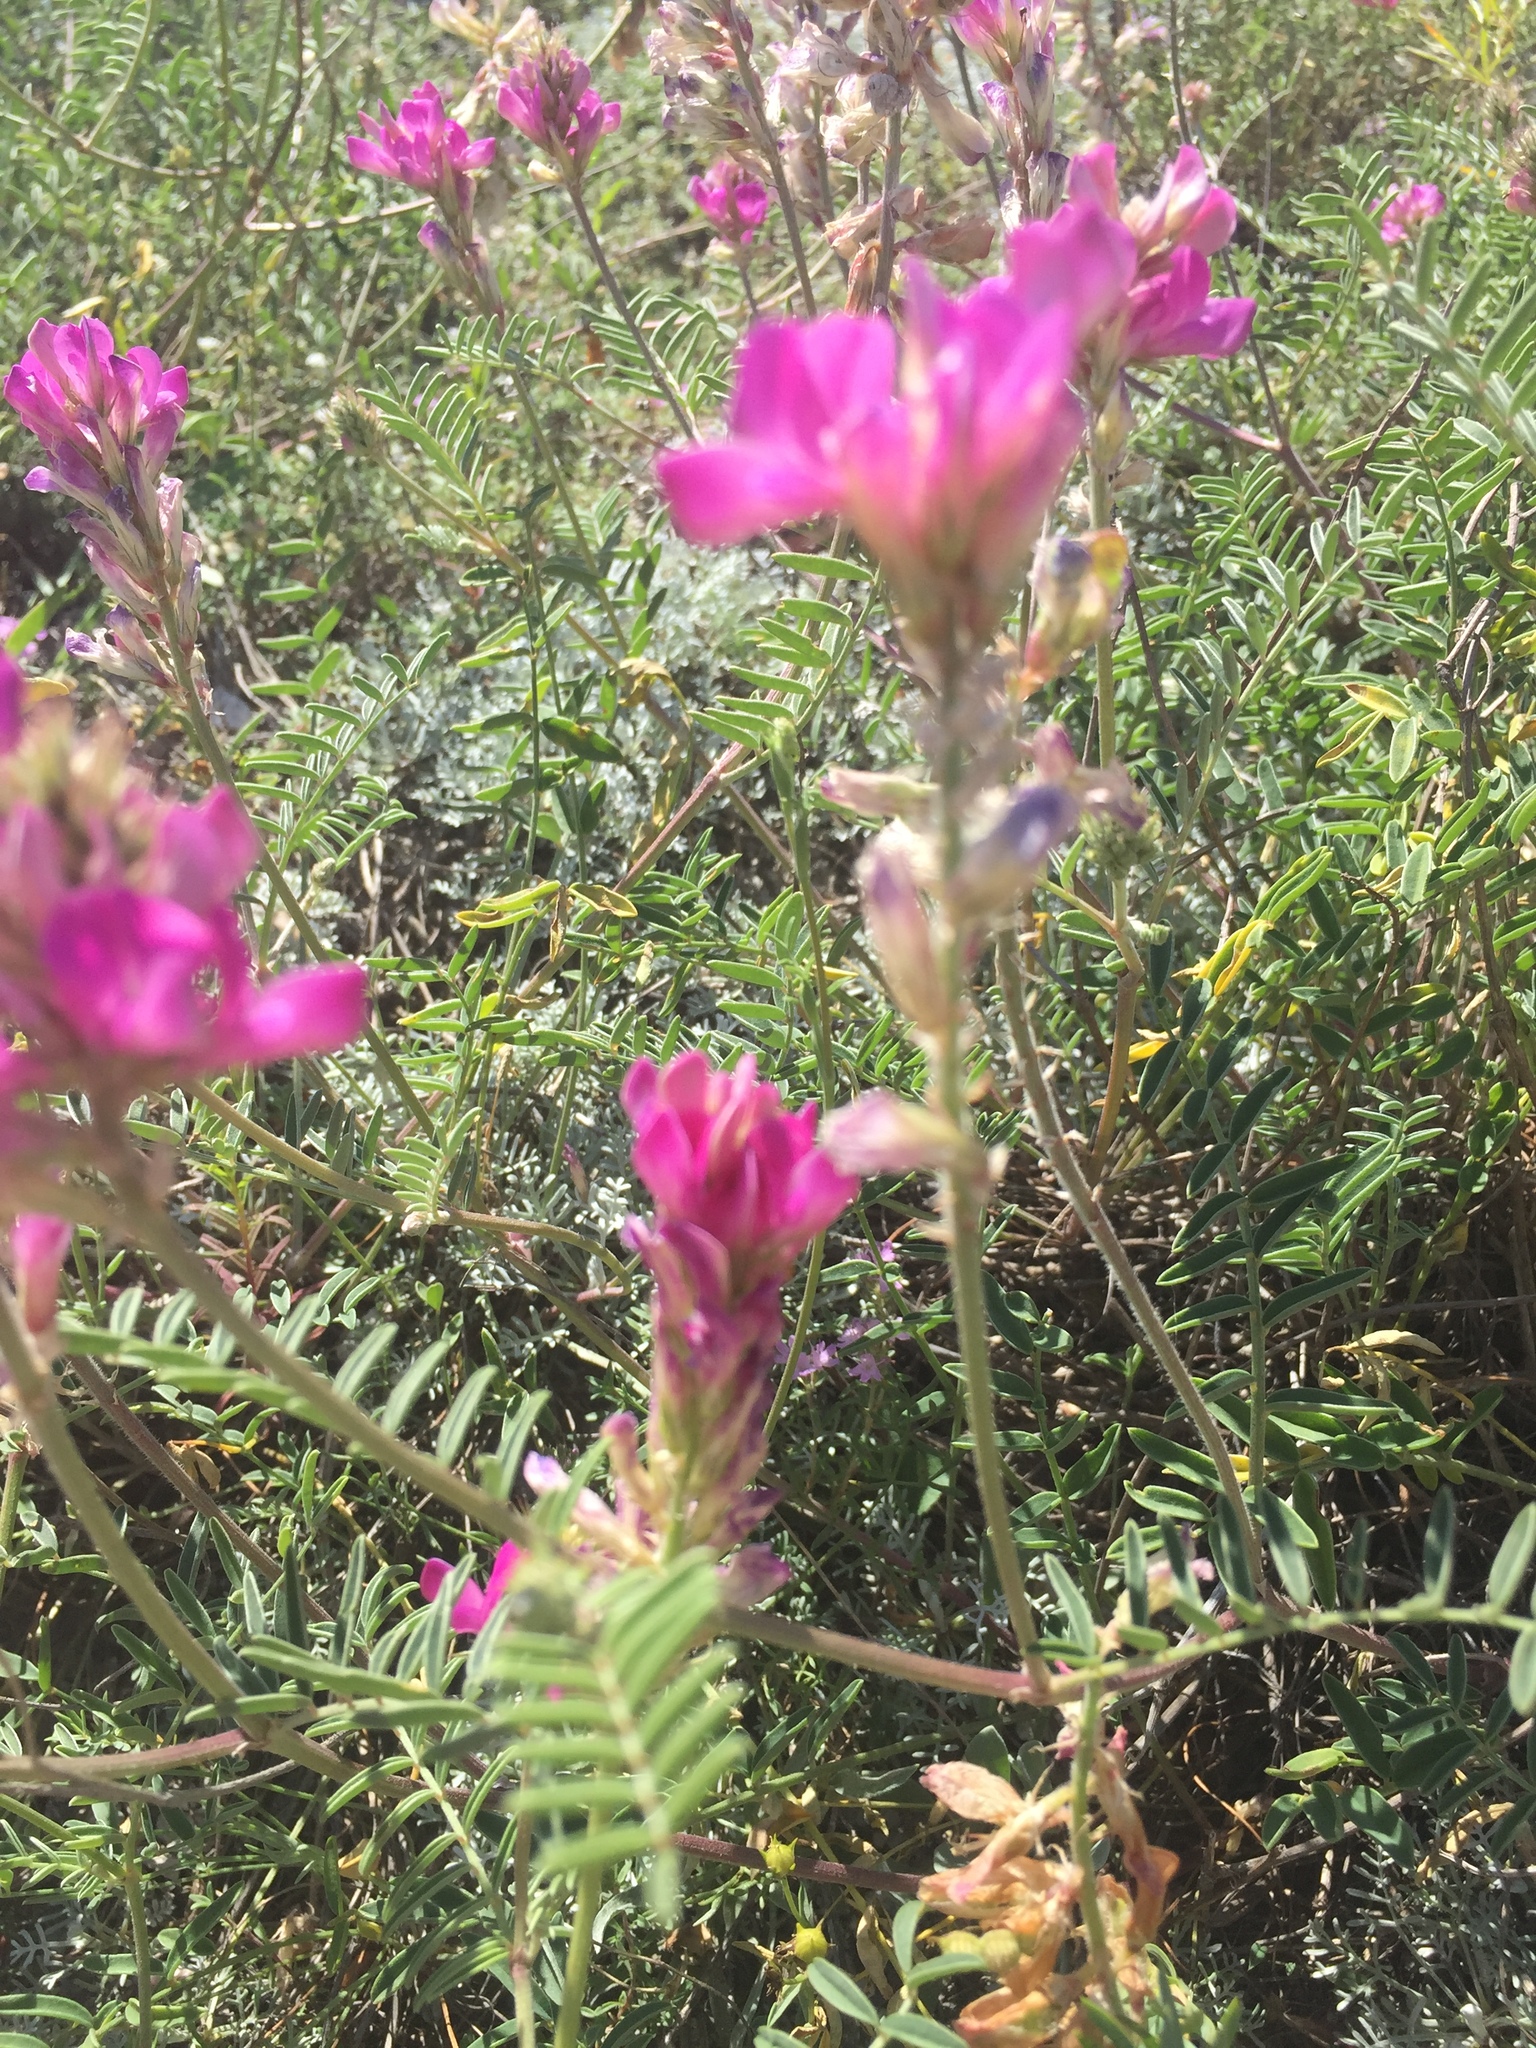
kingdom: Plantae
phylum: Tracheophyta
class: Magnoliopsida
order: Fabales
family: Fabaceae
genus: Hedysarum
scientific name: Hedysarum ucrainicum
